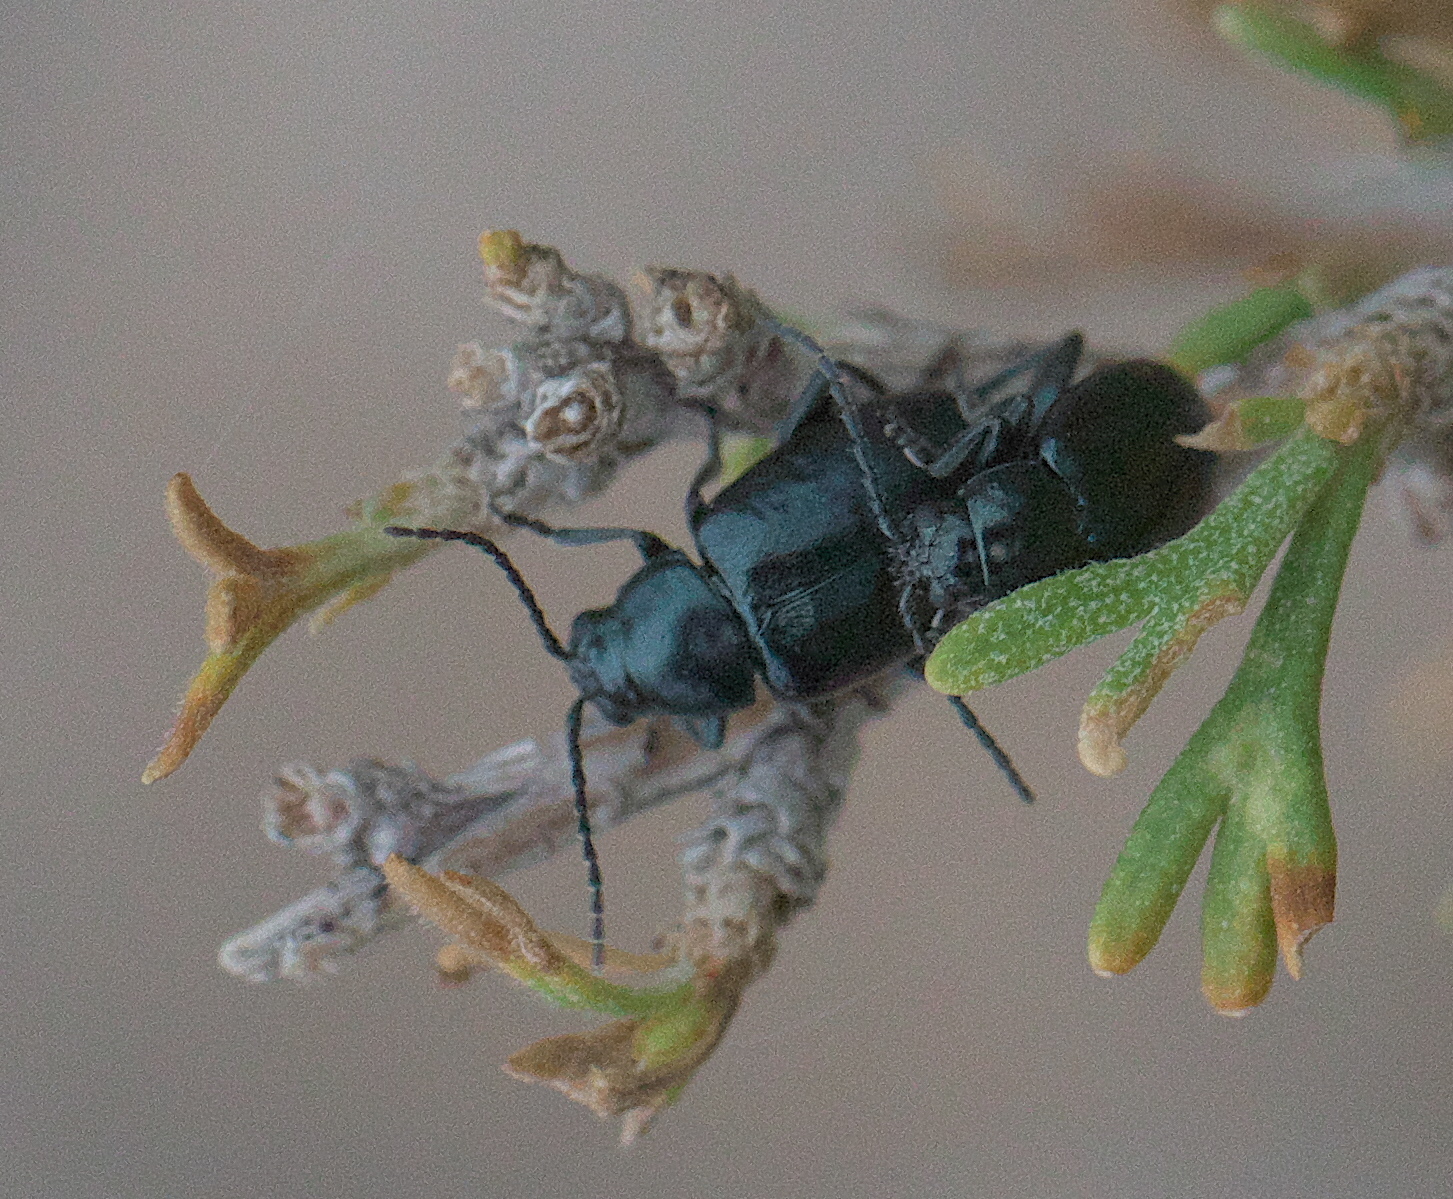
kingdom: Animalia
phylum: Arthropoda
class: Insecta
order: Coleoptera
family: Chrysomelidae
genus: Altica
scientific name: Altica obliterata
